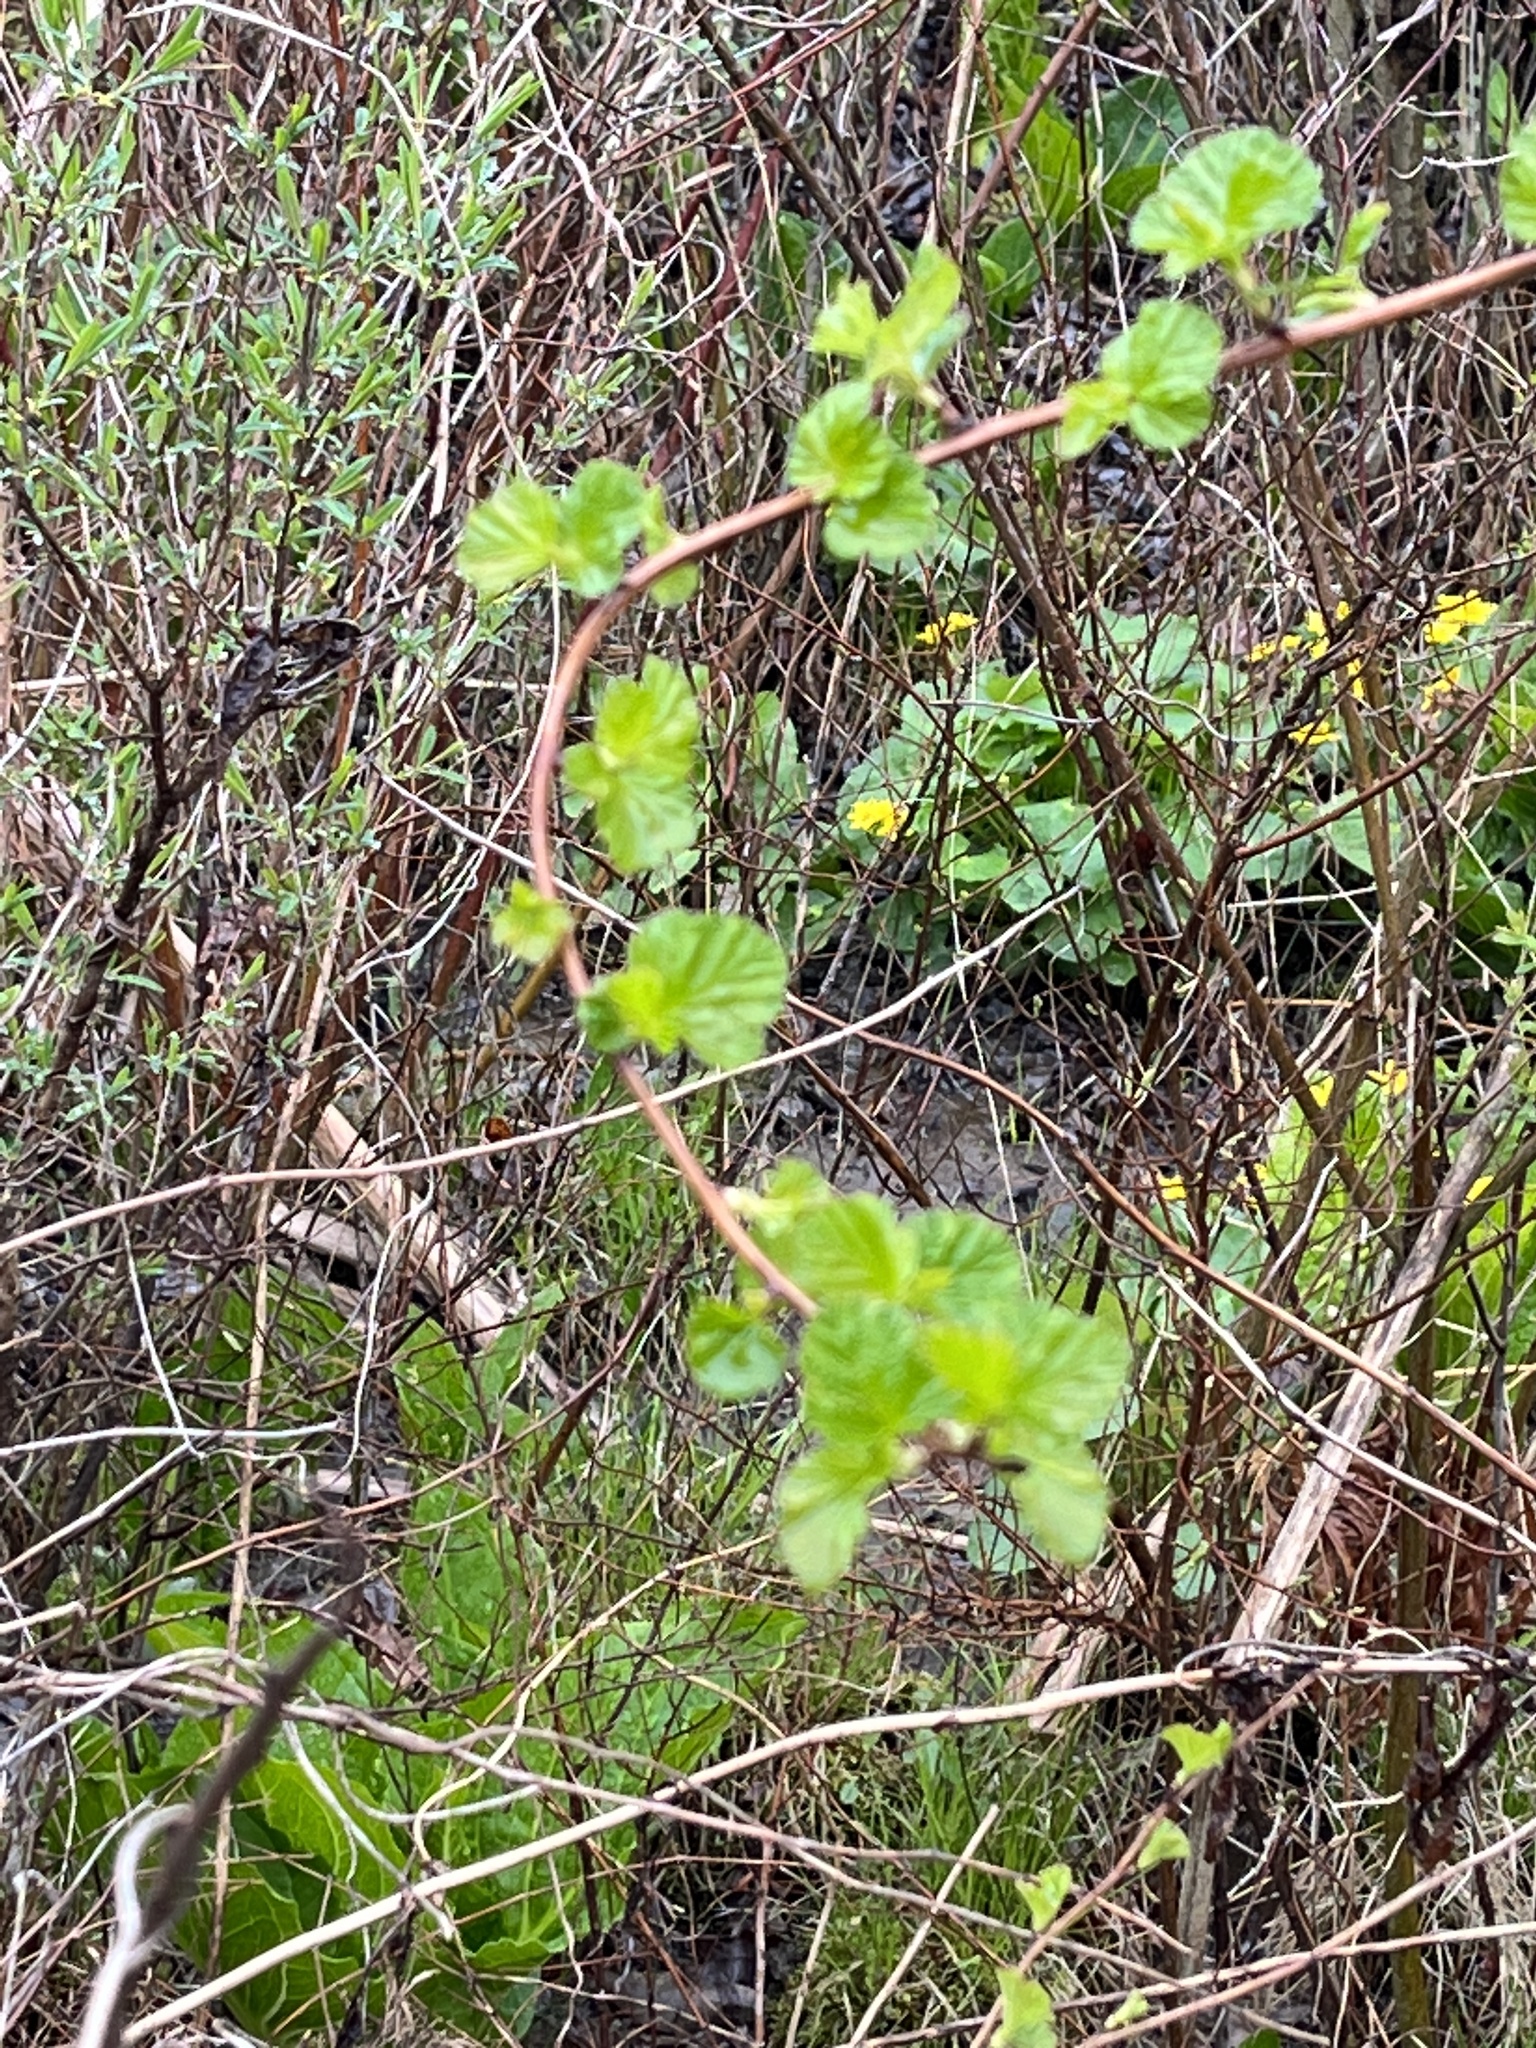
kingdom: Plantae
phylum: Tracheophyta
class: Magnoliopsida
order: Rosales
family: Rosaceae
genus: Physocarpus
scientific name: Physocarpus opulifolius
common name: Ninebark
